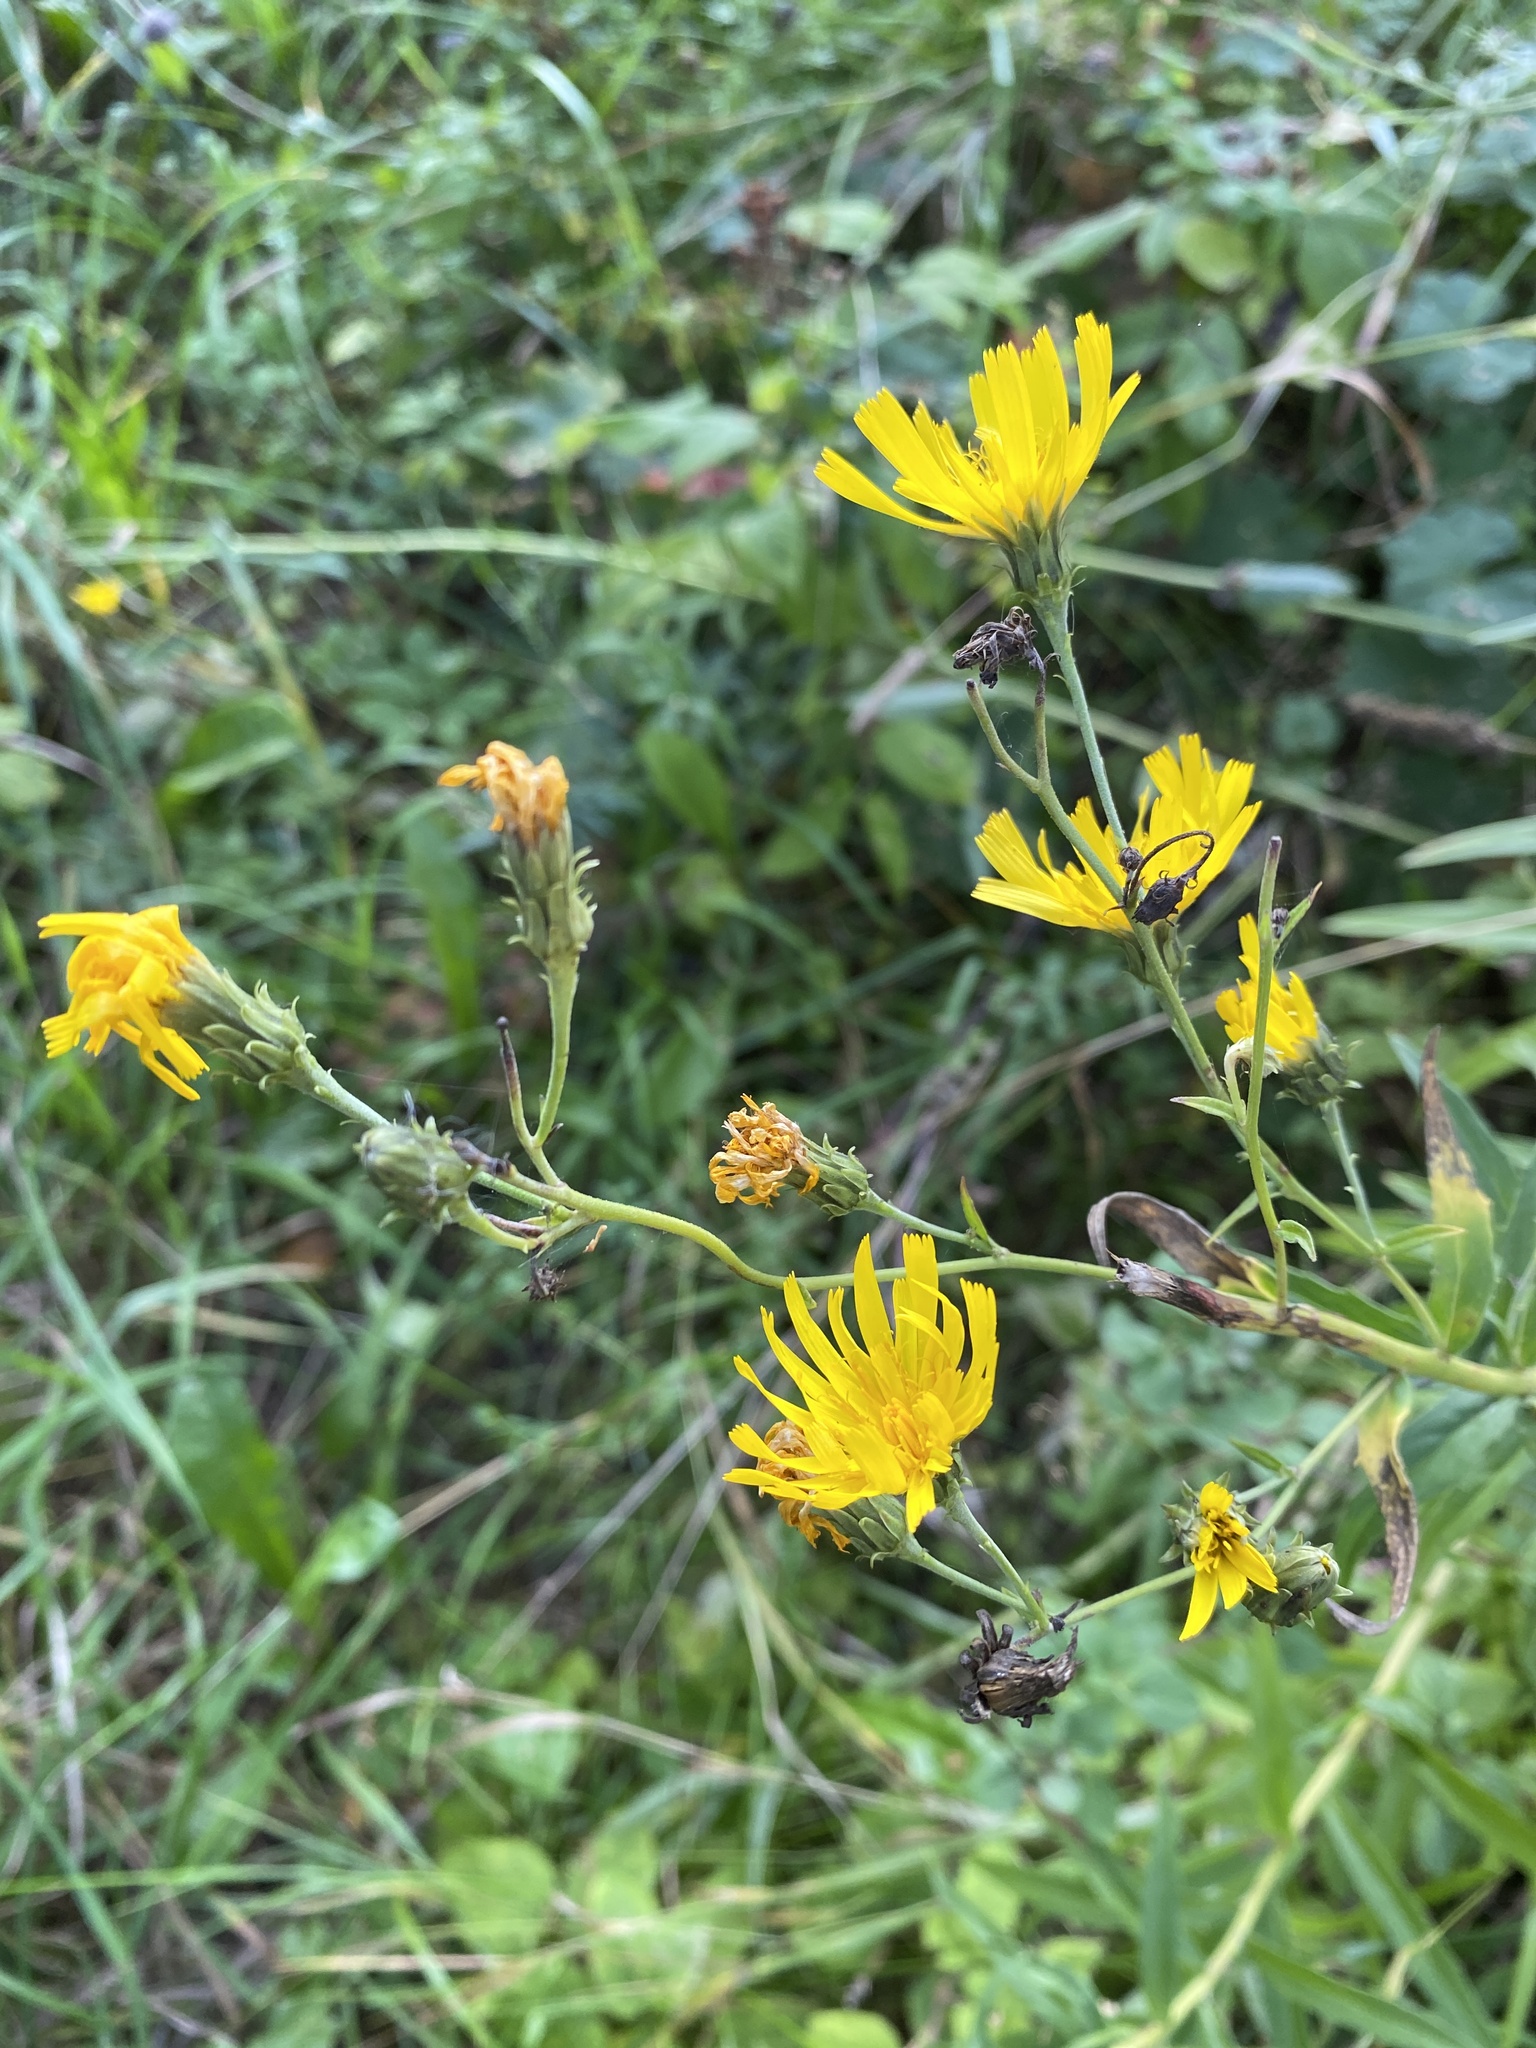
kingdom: Plantae
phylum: Tracheophyta
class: Magnoliopsida
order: Asterales
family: Asteraceae
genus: Hieracium
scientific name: Hieracium umbellatum
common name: Northern hawkweed
